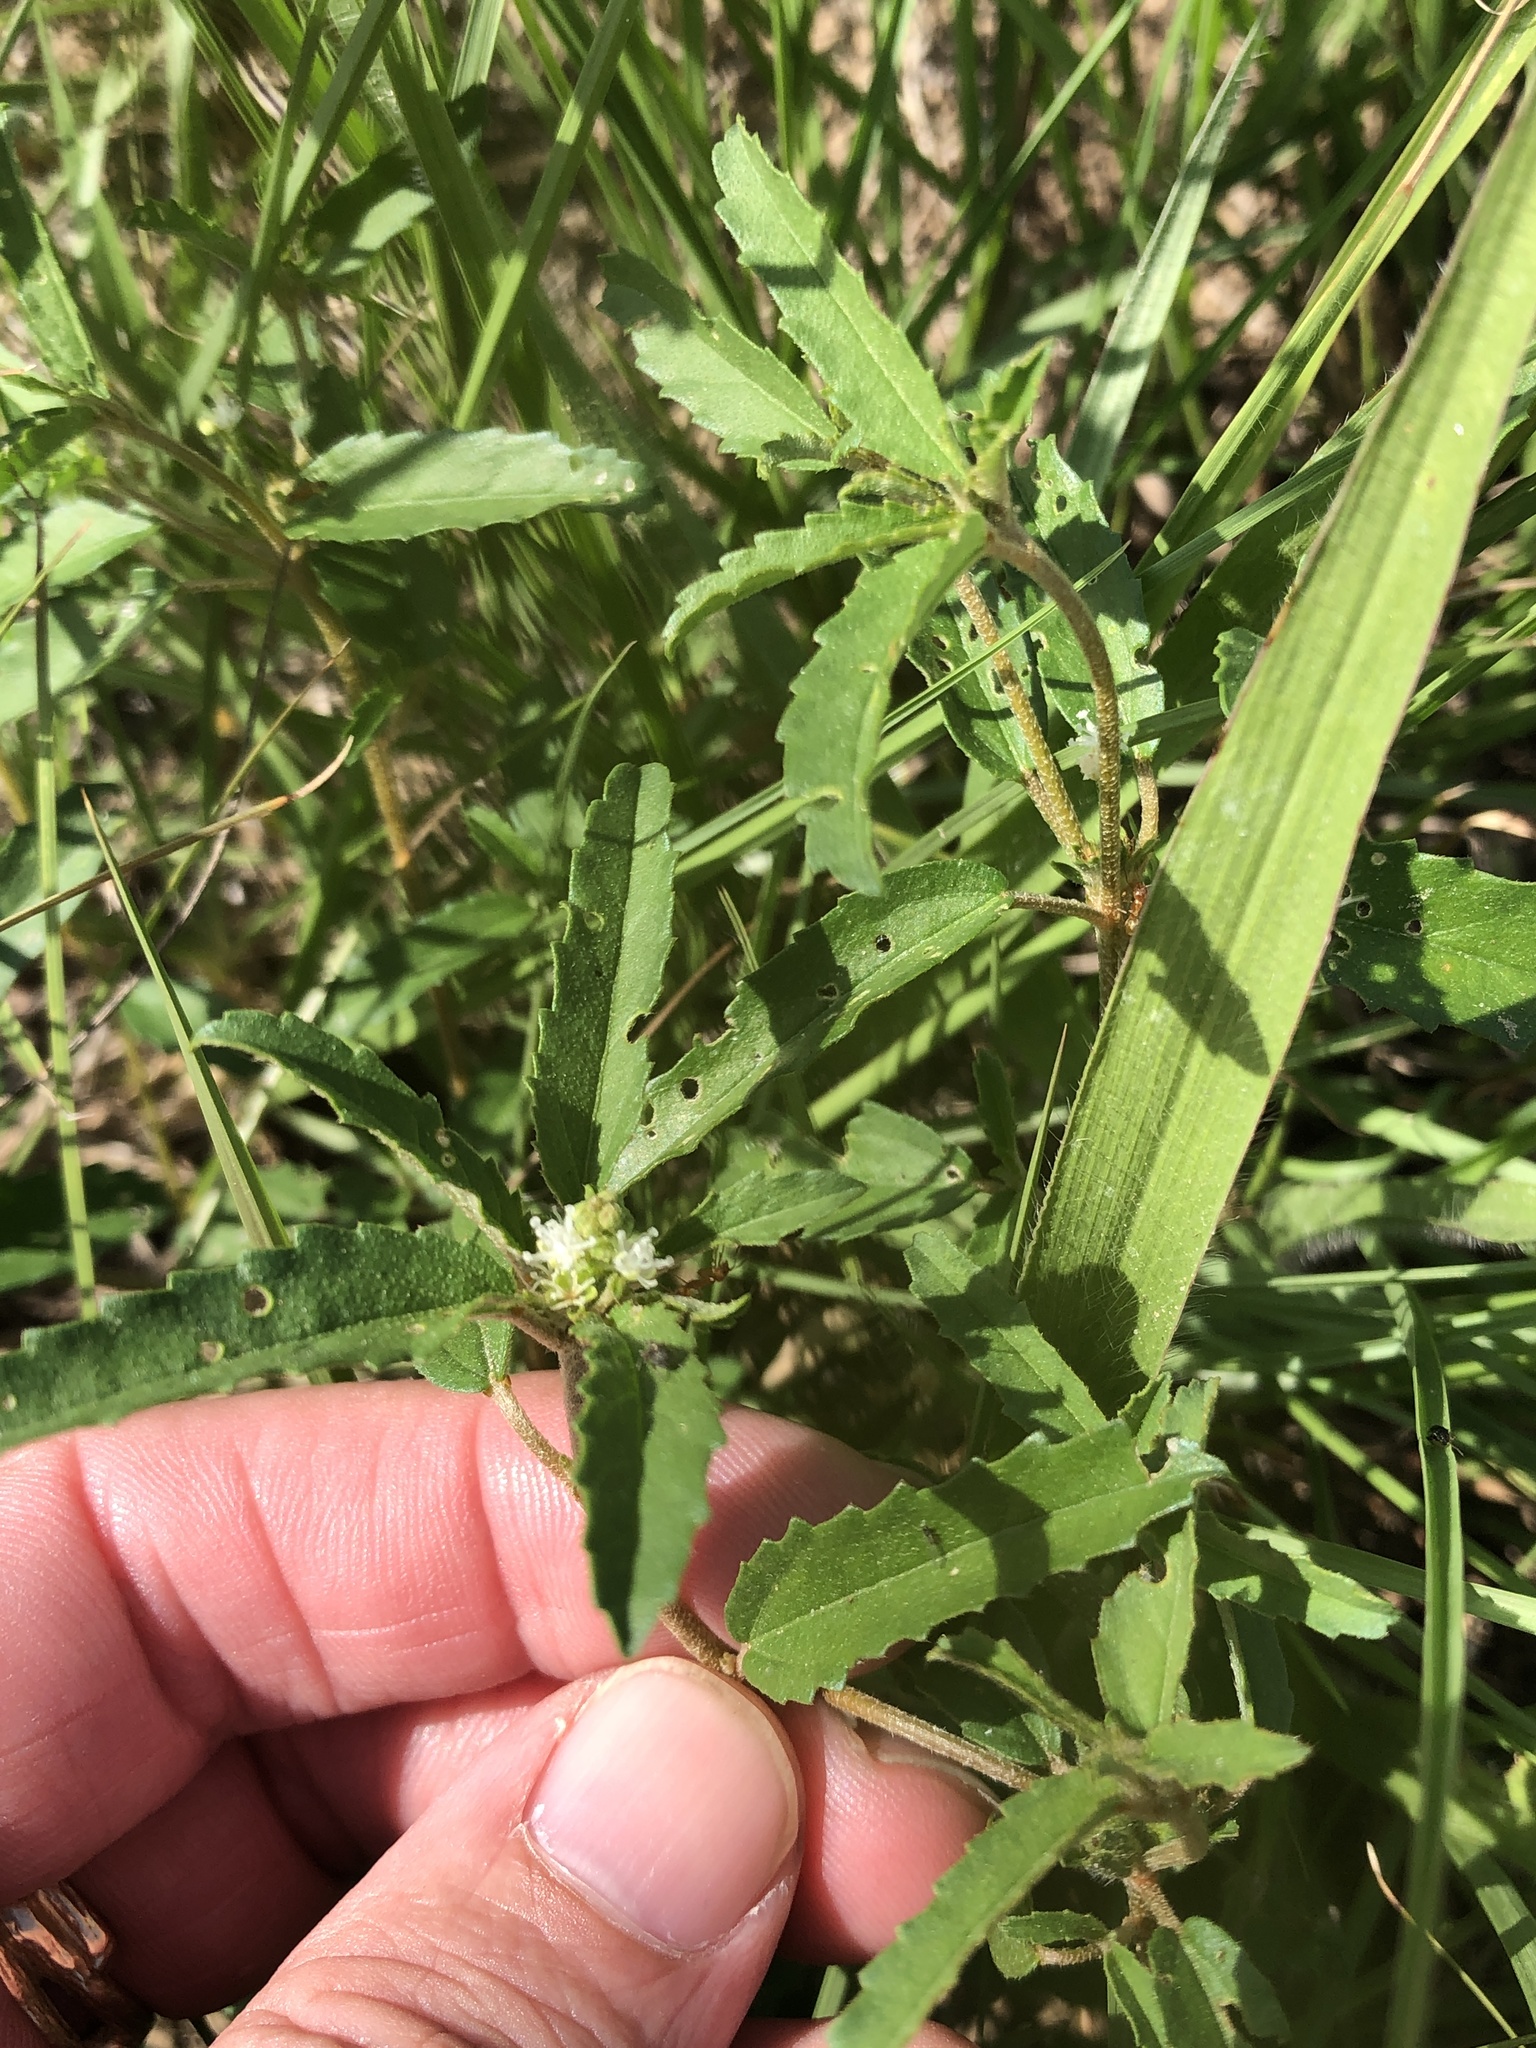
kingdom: Plantae
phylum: Tracheophyta
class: Magnoliopsida
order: Malpighiales
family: Euphorbiaceae
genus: Croton
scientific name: Croton glandulosus
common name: Tropic croton
